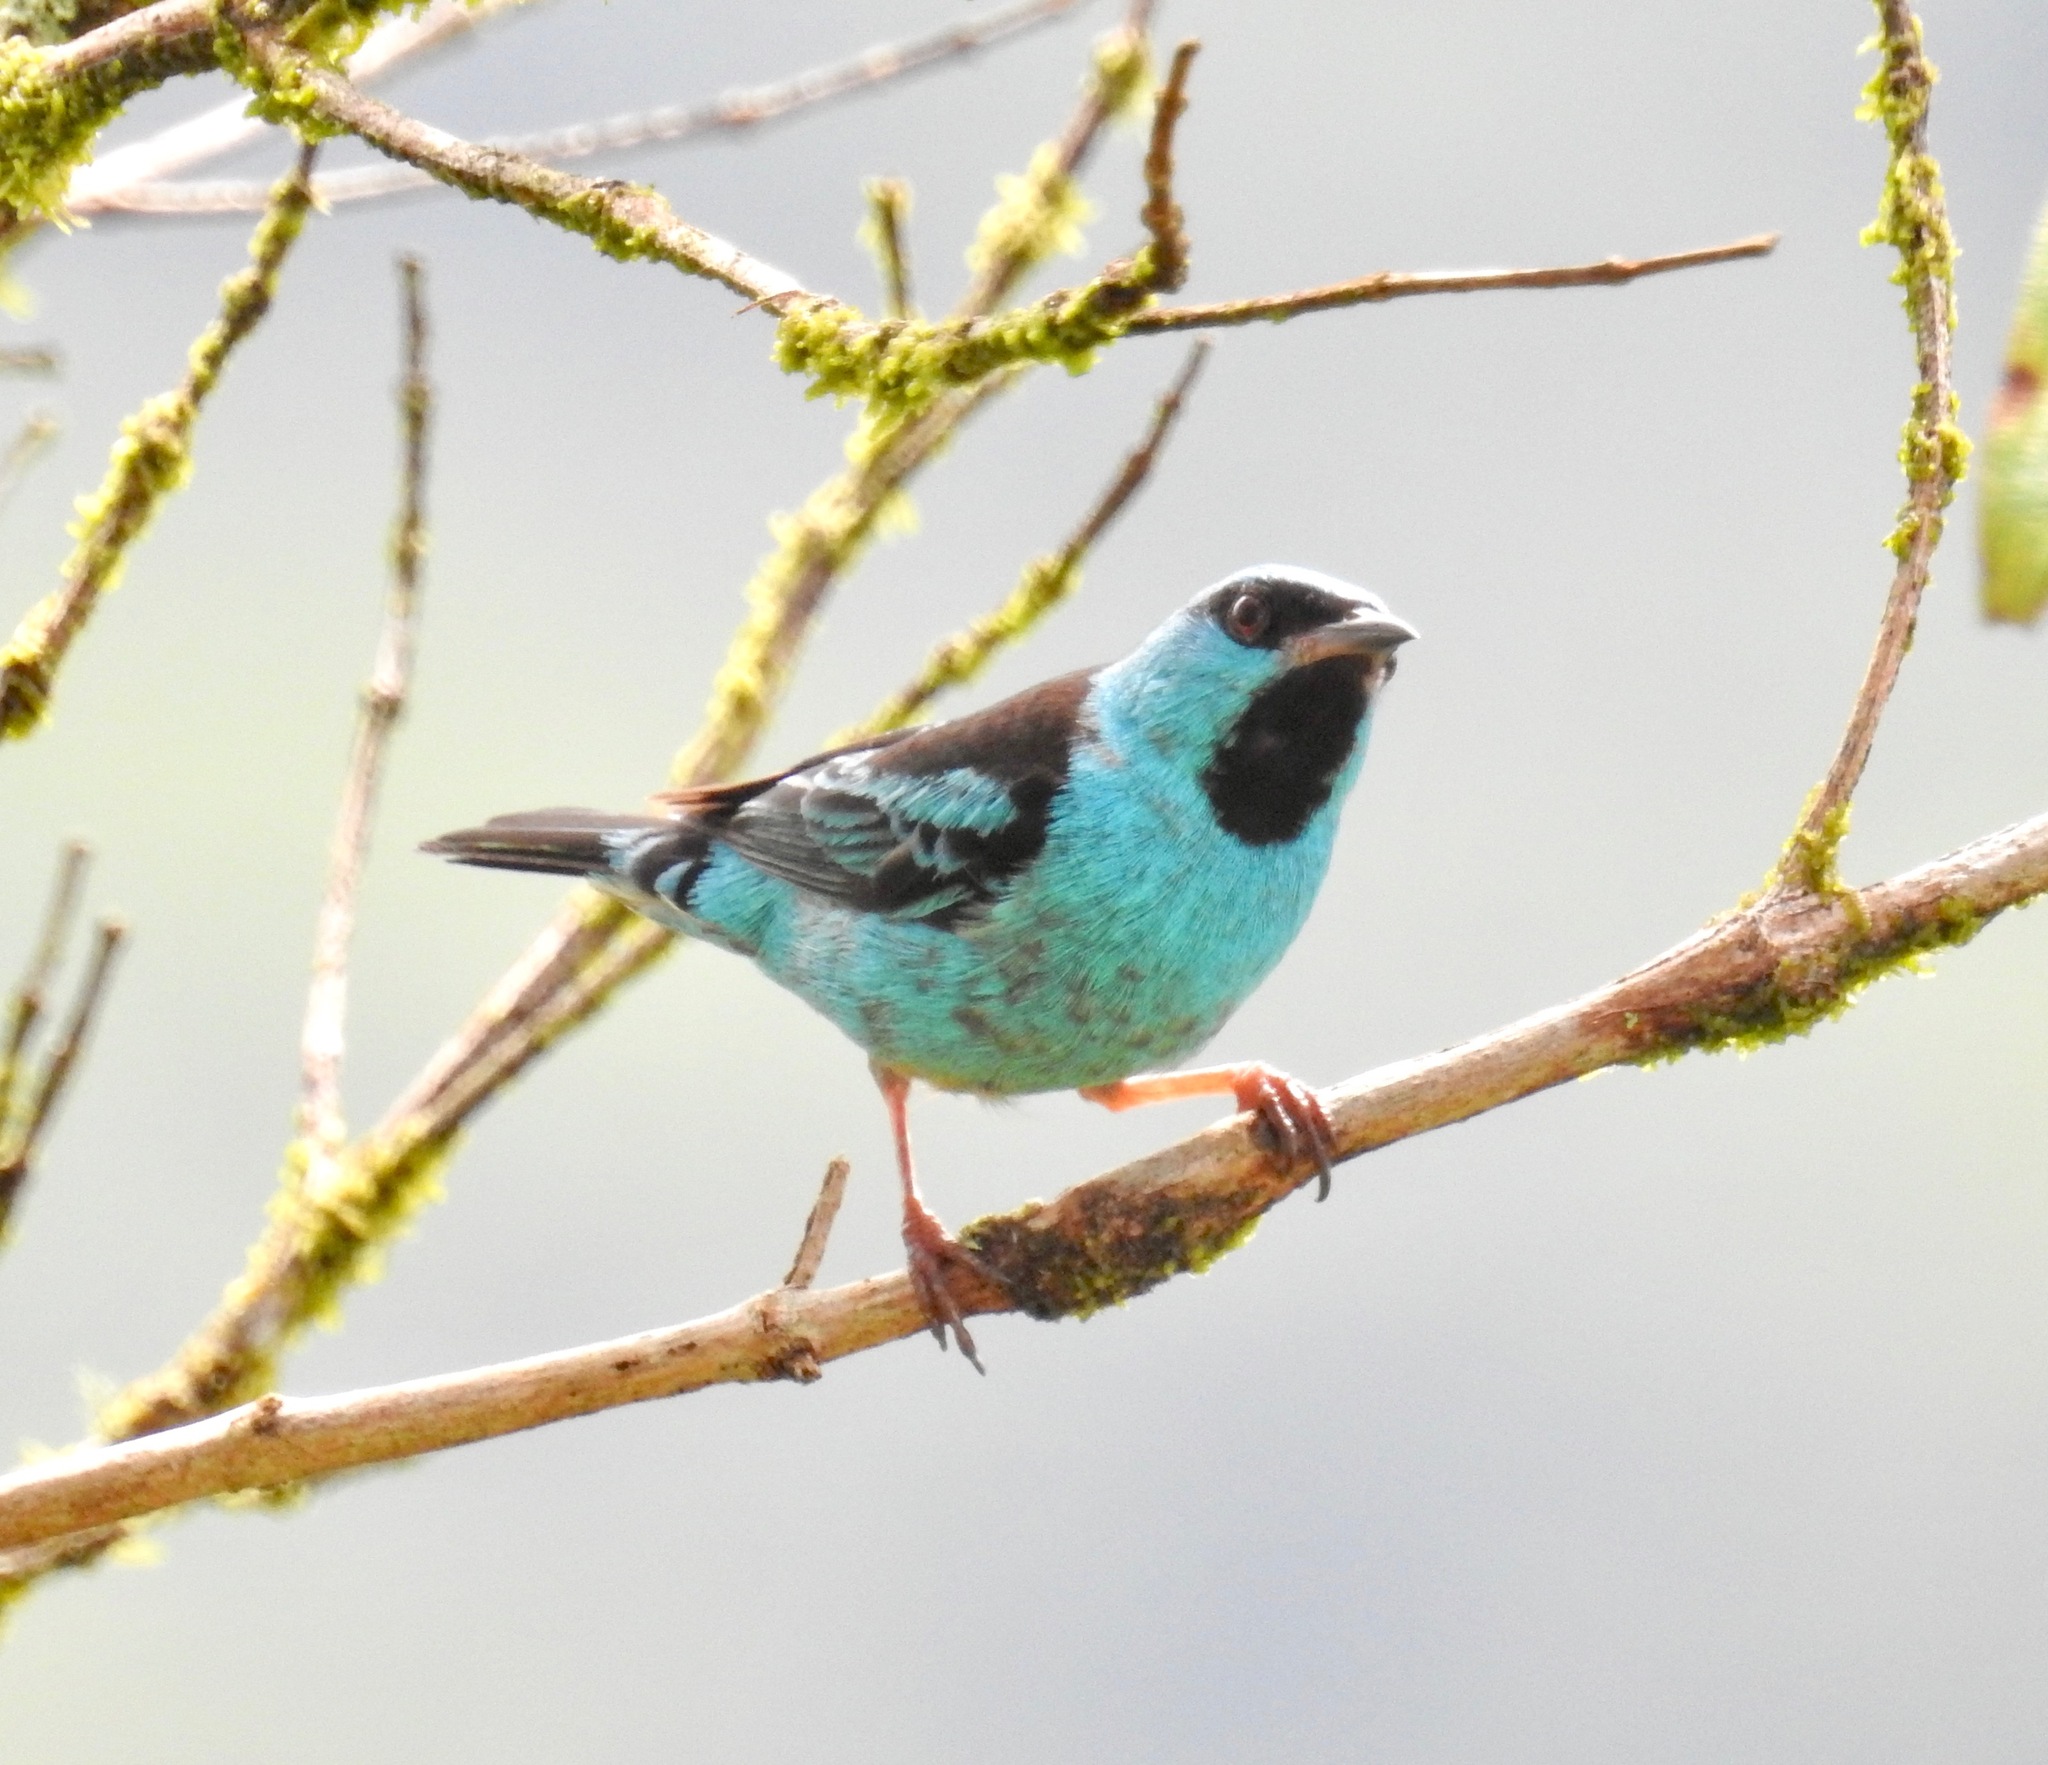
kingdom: Animalia
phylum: Chordata
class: Aves
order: Passeriformes
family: Thraupidae
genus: Dacnis
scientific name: Dacnis cayana
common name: Blue dacnis
